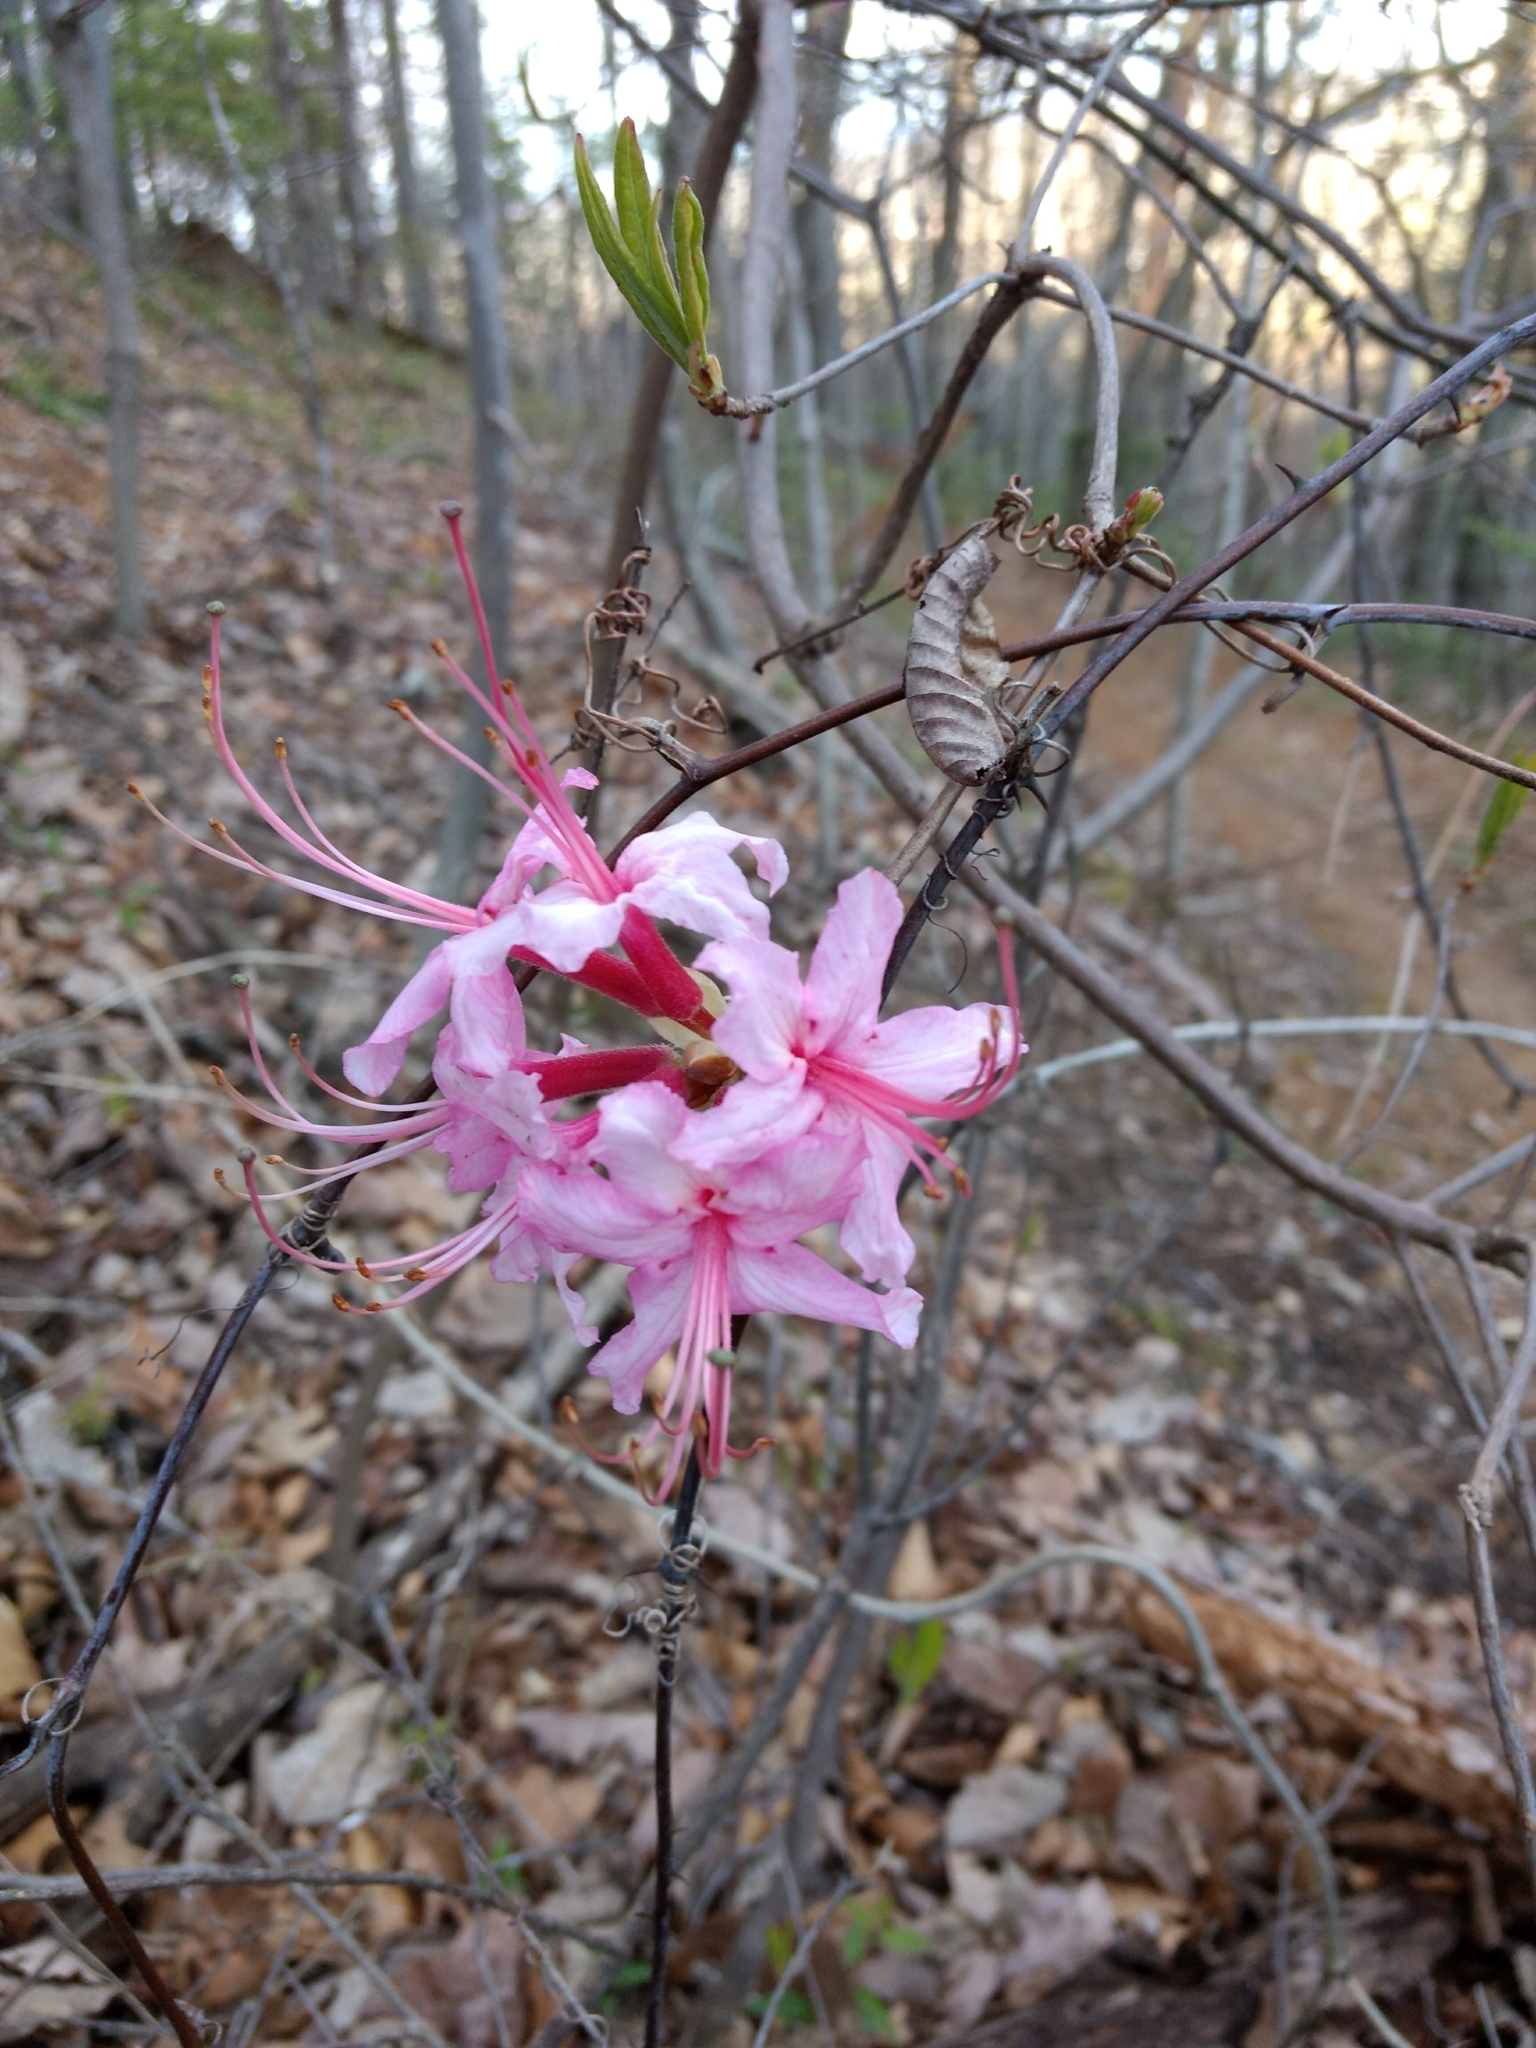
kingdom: Plantae
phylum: Tracheophyta
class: Magnoliopsida
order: Ericales
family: Ericaceae
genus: Rhododendron
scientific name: Rhododendron roseum
